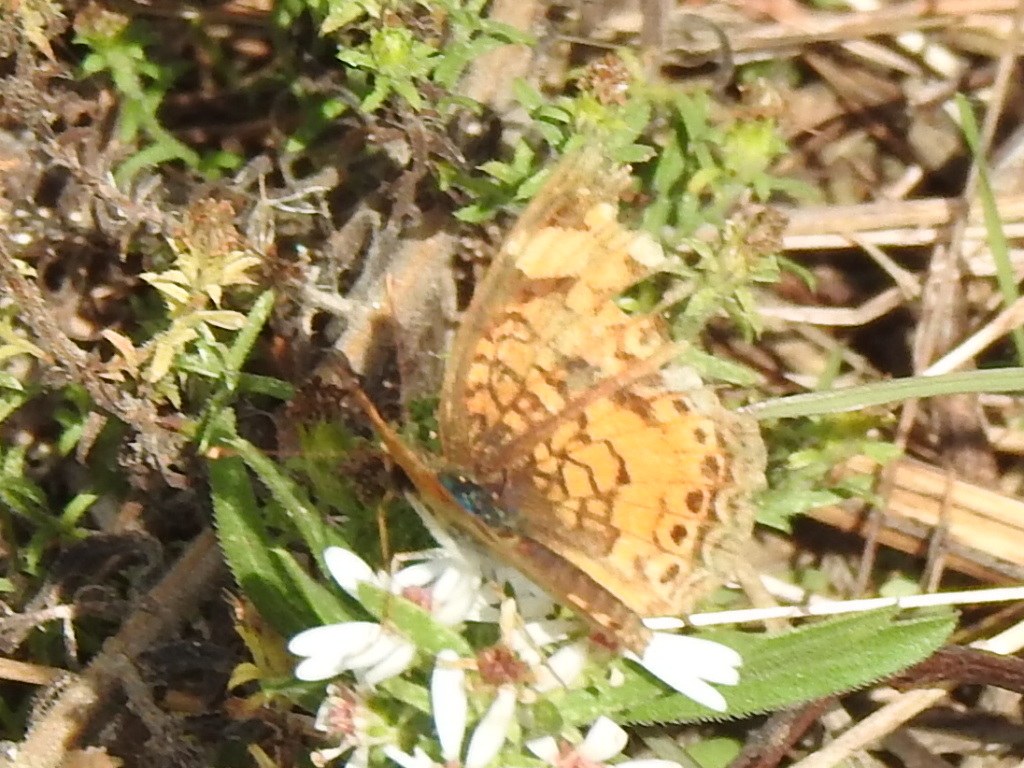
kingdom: Animalia
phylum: Arthropoda
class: Insecta
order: Lepidoptera
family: Nymphalidae
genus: Phyciodes
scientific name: Phyciodes tharos
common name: Pearl crescent
